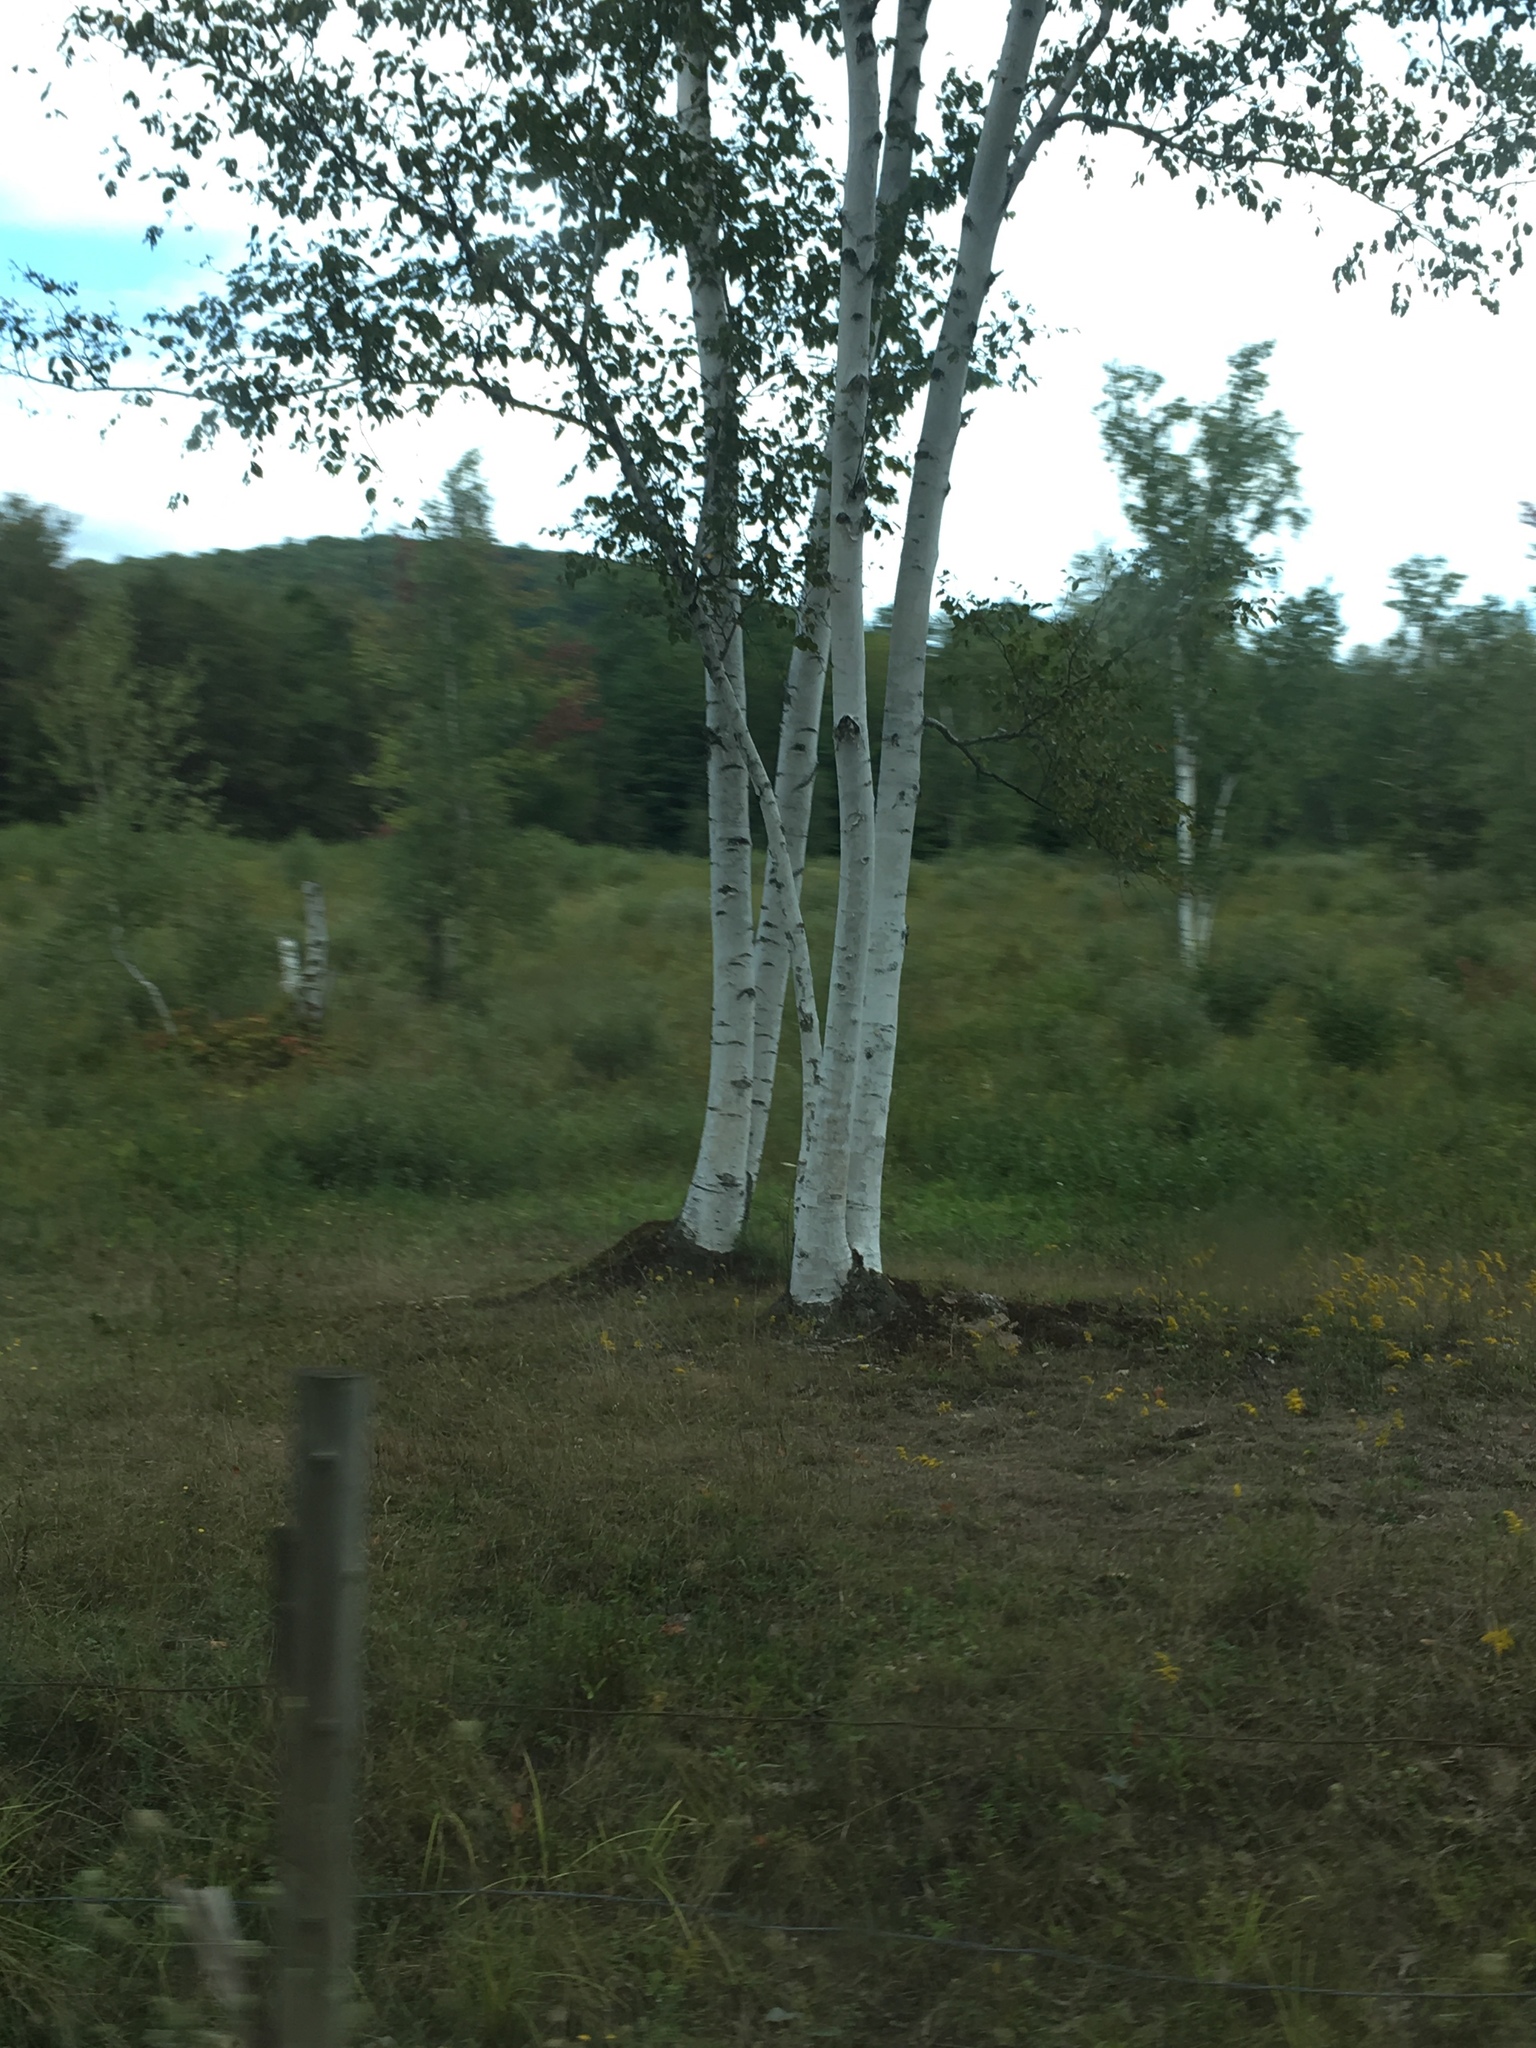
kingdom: Plantae
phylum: Tracheophyta
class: Magnoliopsida
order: Fagales
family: Betulaceae
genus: Betula
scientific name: Betula papyrifera
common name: Paper birch
